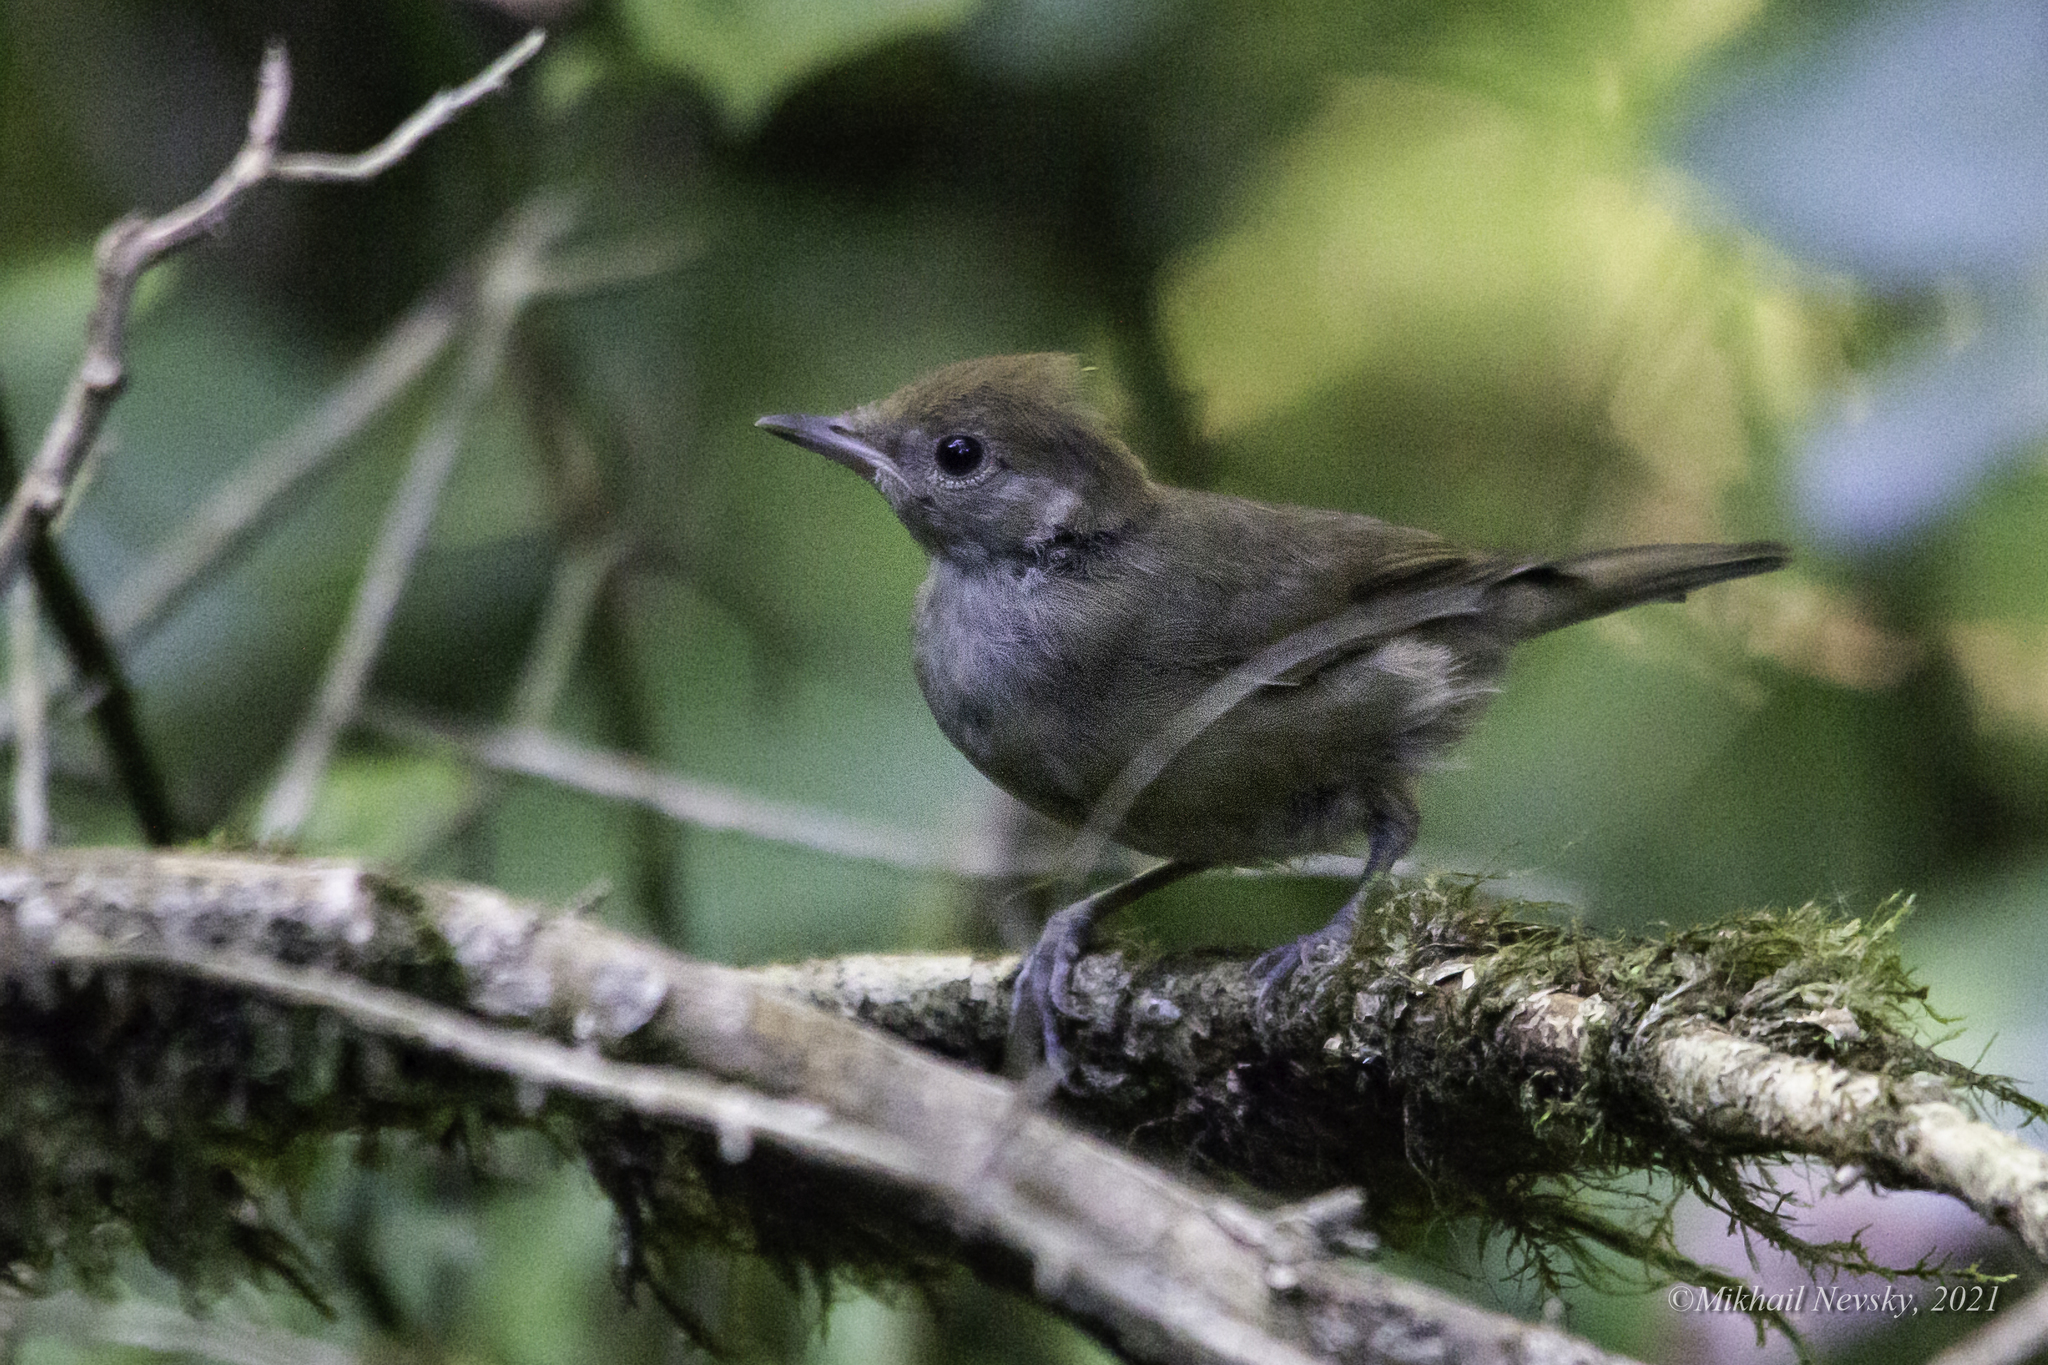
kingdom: Animalia
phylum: Chordata
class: Aves
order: Passeriformes
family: Sylviidae
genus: Sylvia
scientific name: Sylvia atricapilla
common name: Eurasian blackcap
